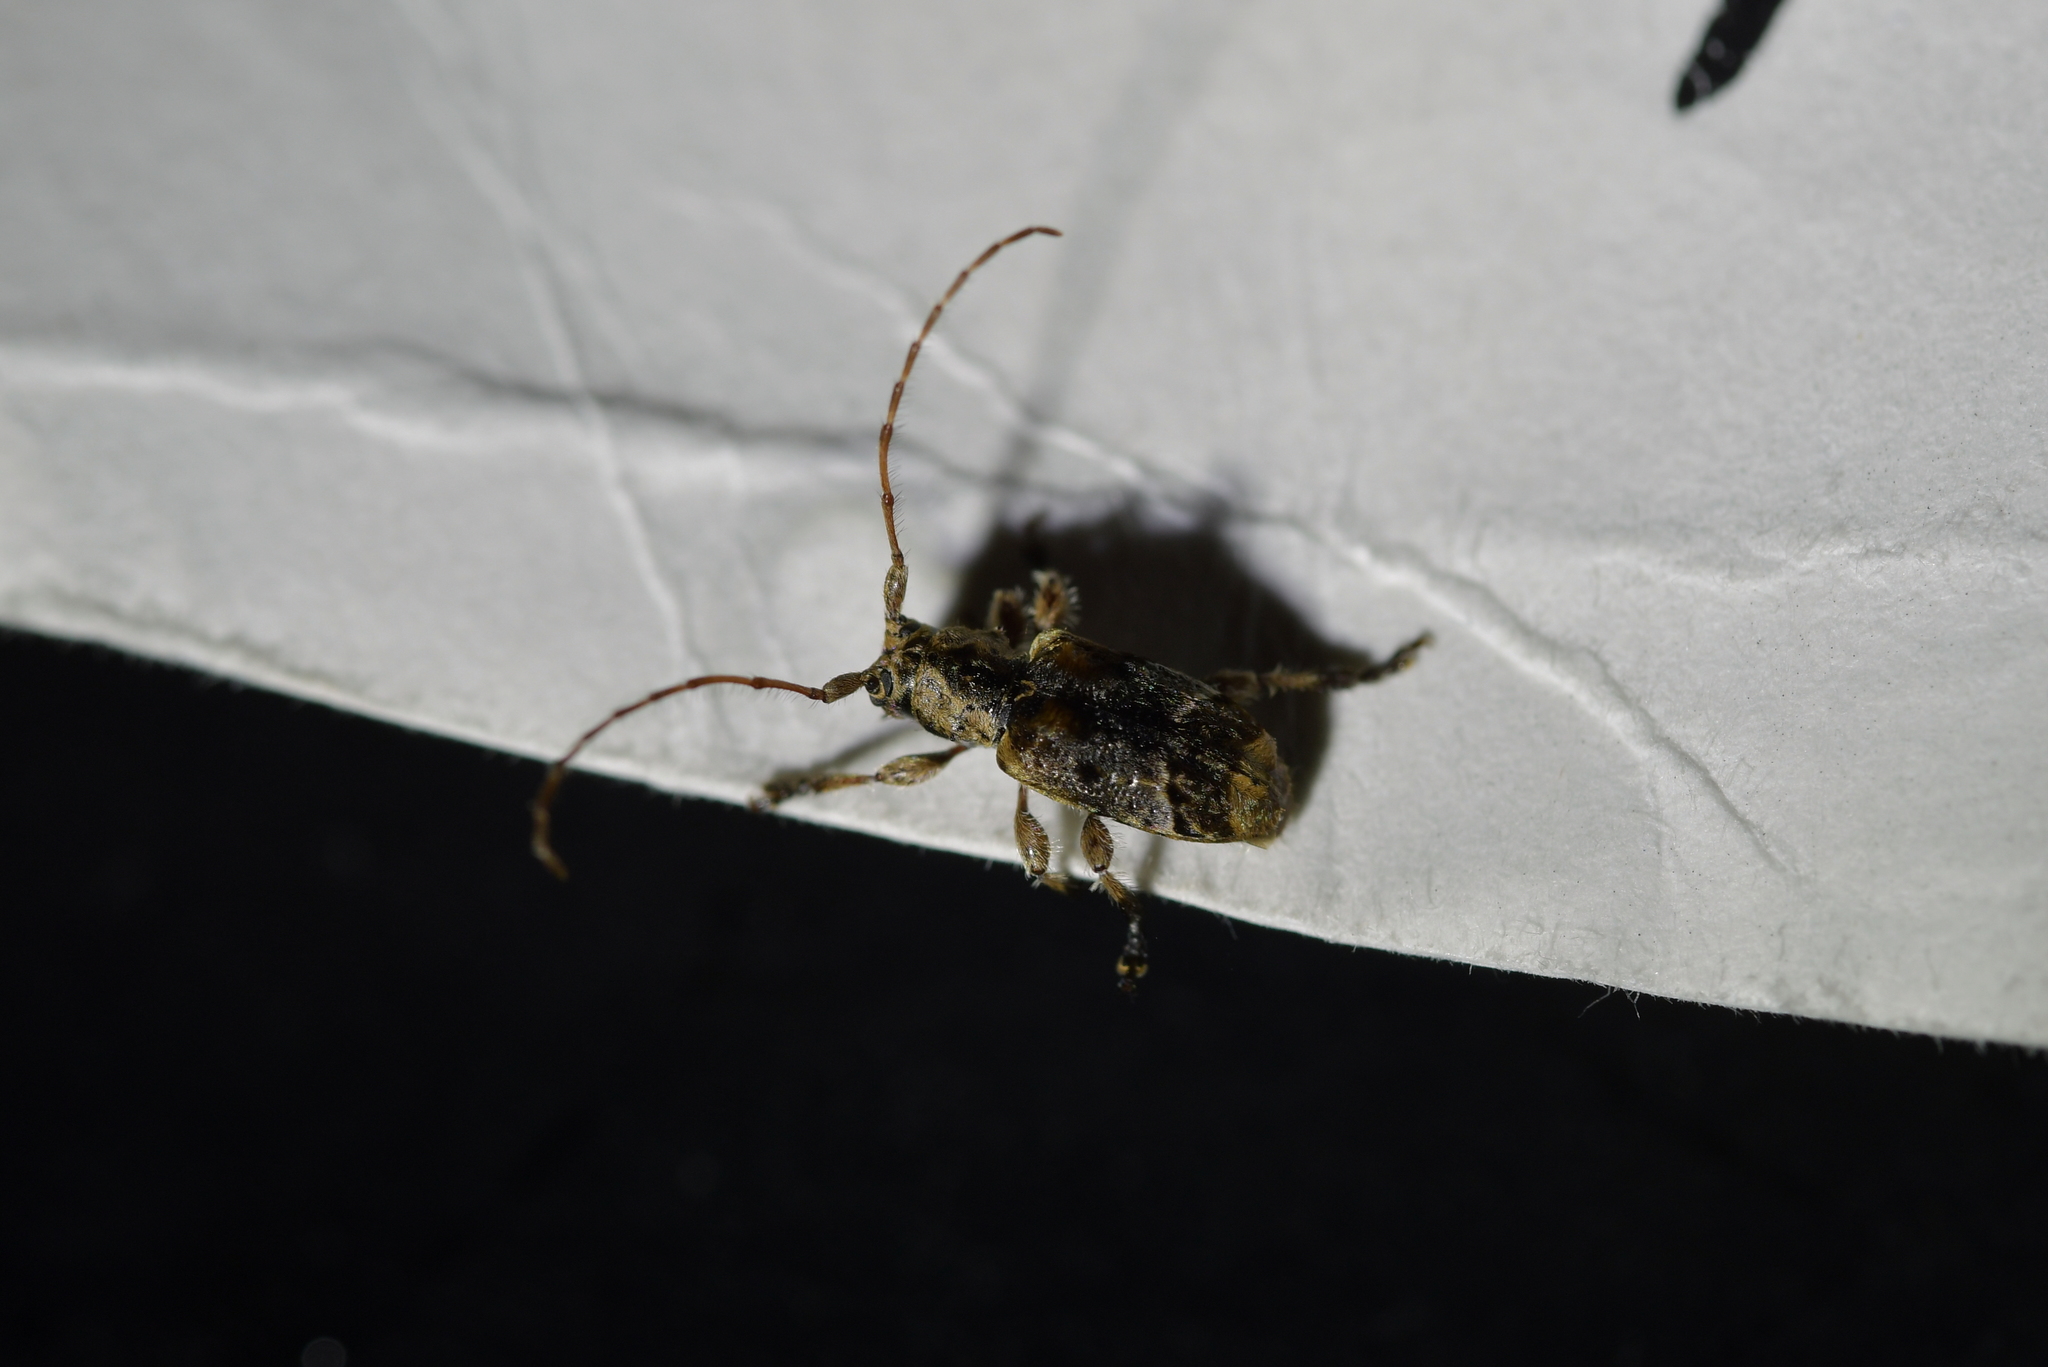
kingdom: Animalia
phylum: Arthropoda
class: Insecta
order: Coleoptera
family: Cerambycidae
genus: Hybolasius
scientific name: Hybolasius cristus
